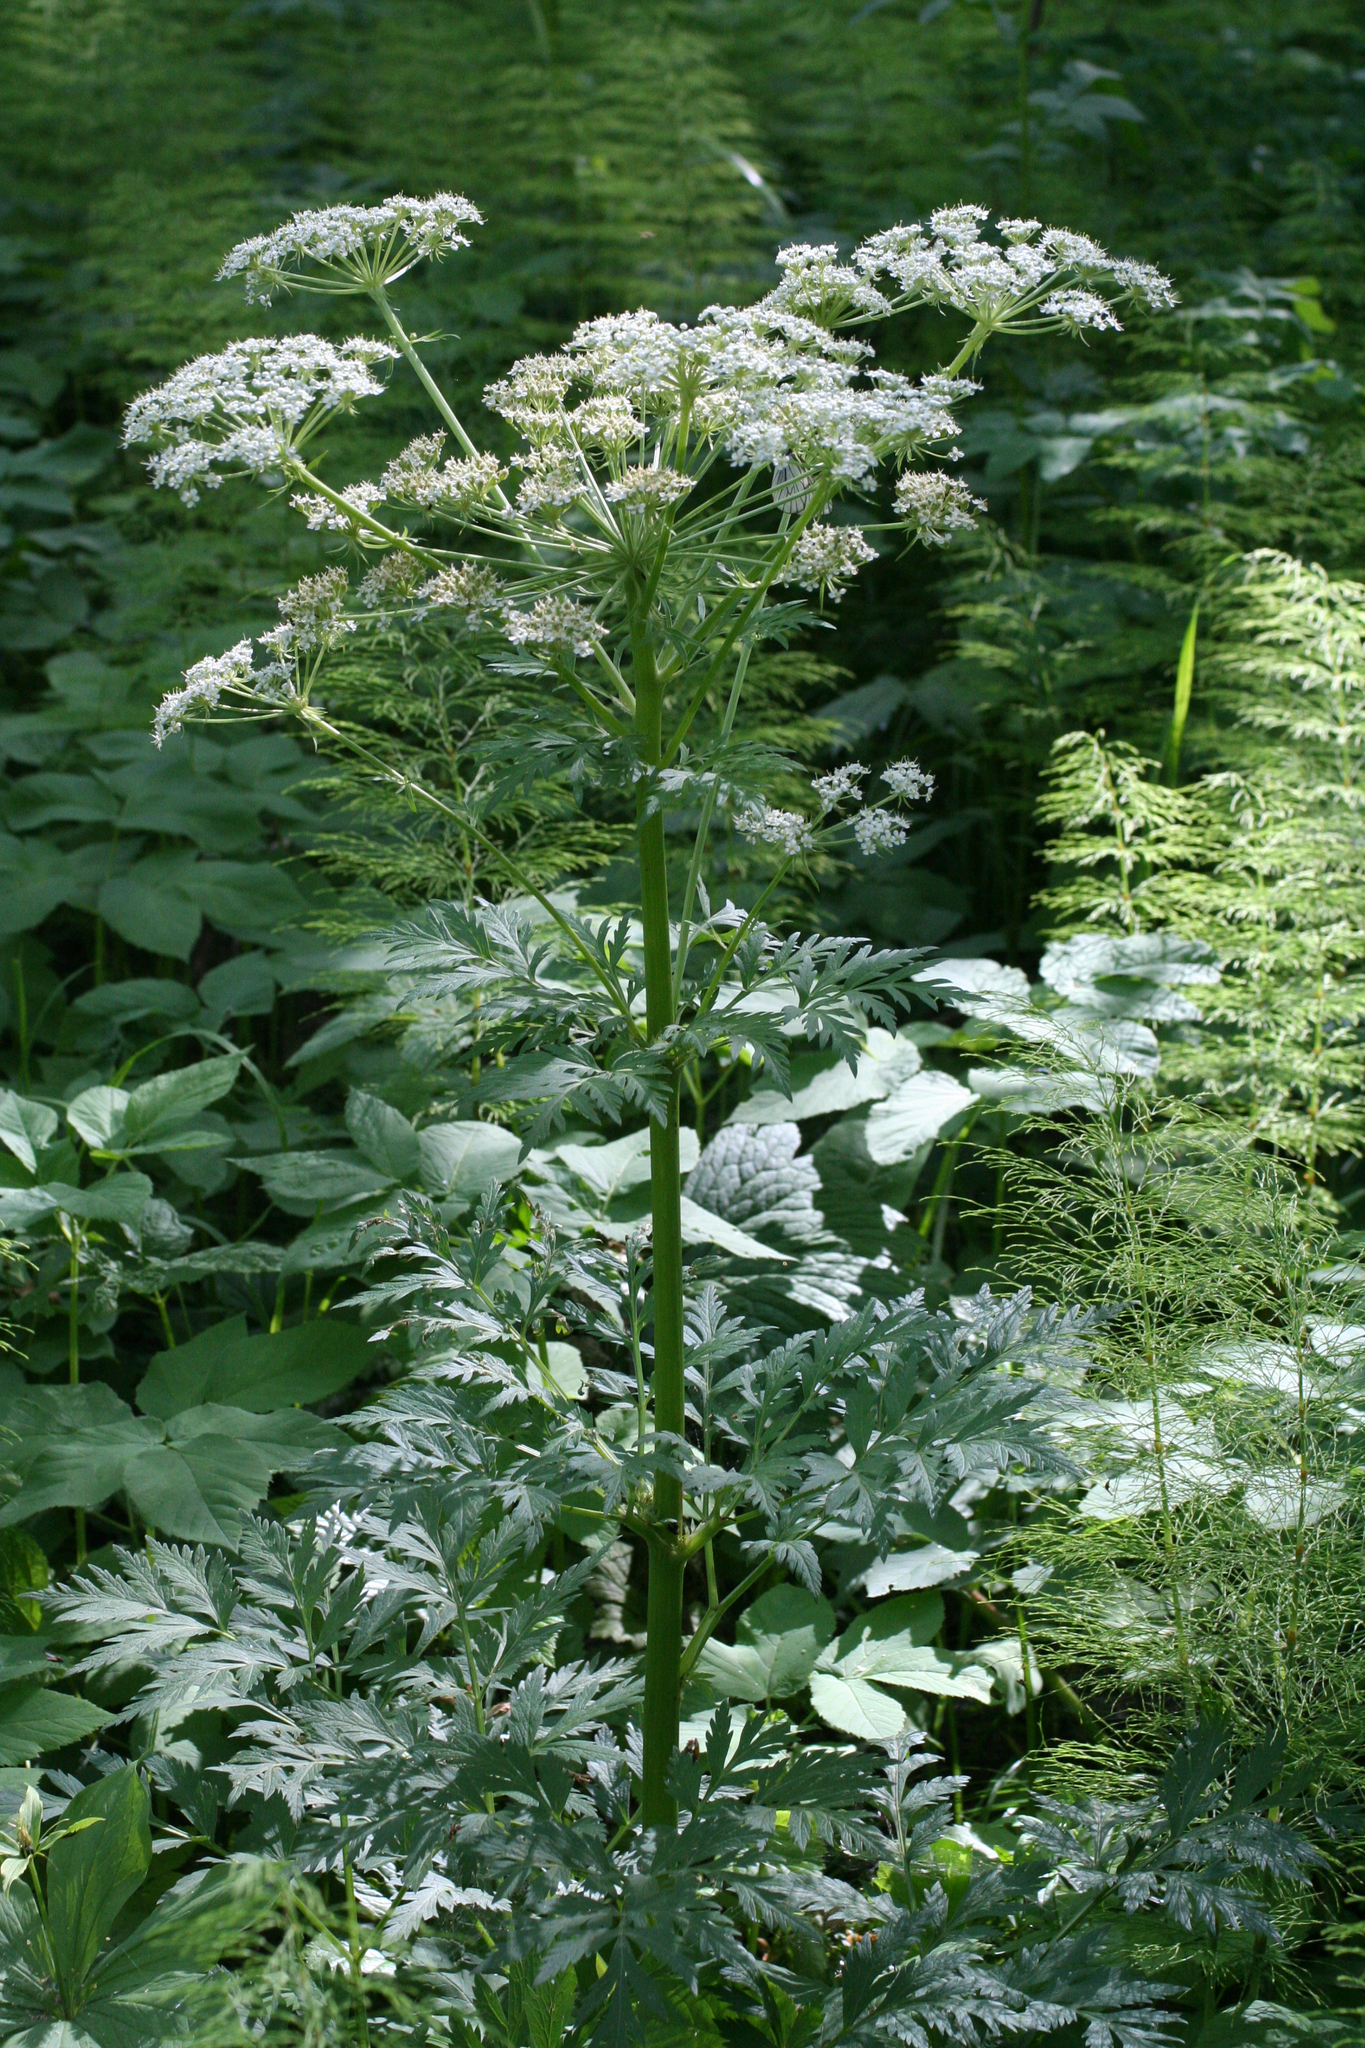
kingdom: Plantae
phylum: Tracheophyta
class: Magnoliopsida
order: Apiales
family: Apiaceae
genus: Pleurospermum
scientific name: Pleurospermum uralense
